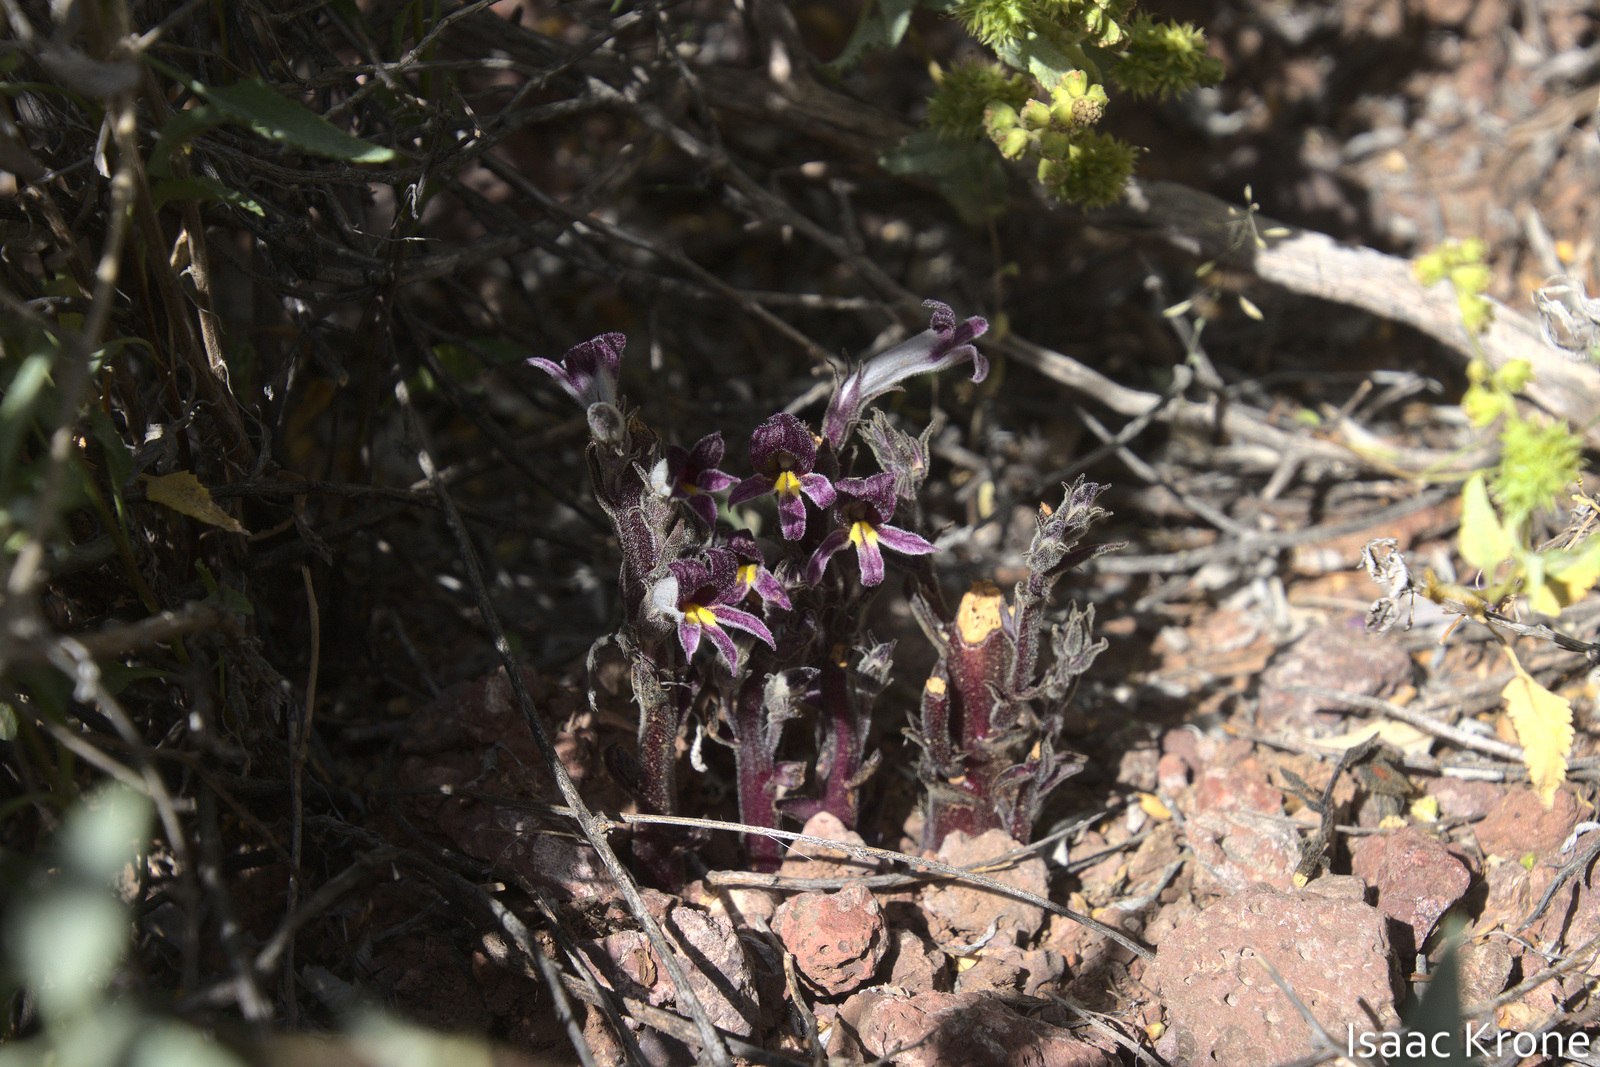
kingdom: Plantae
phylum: Tracheophyta
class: Magnoliopsida
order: Lamiales
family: Orobanchaceae
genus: Aphyllon
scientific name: Aphyllon cooperi
